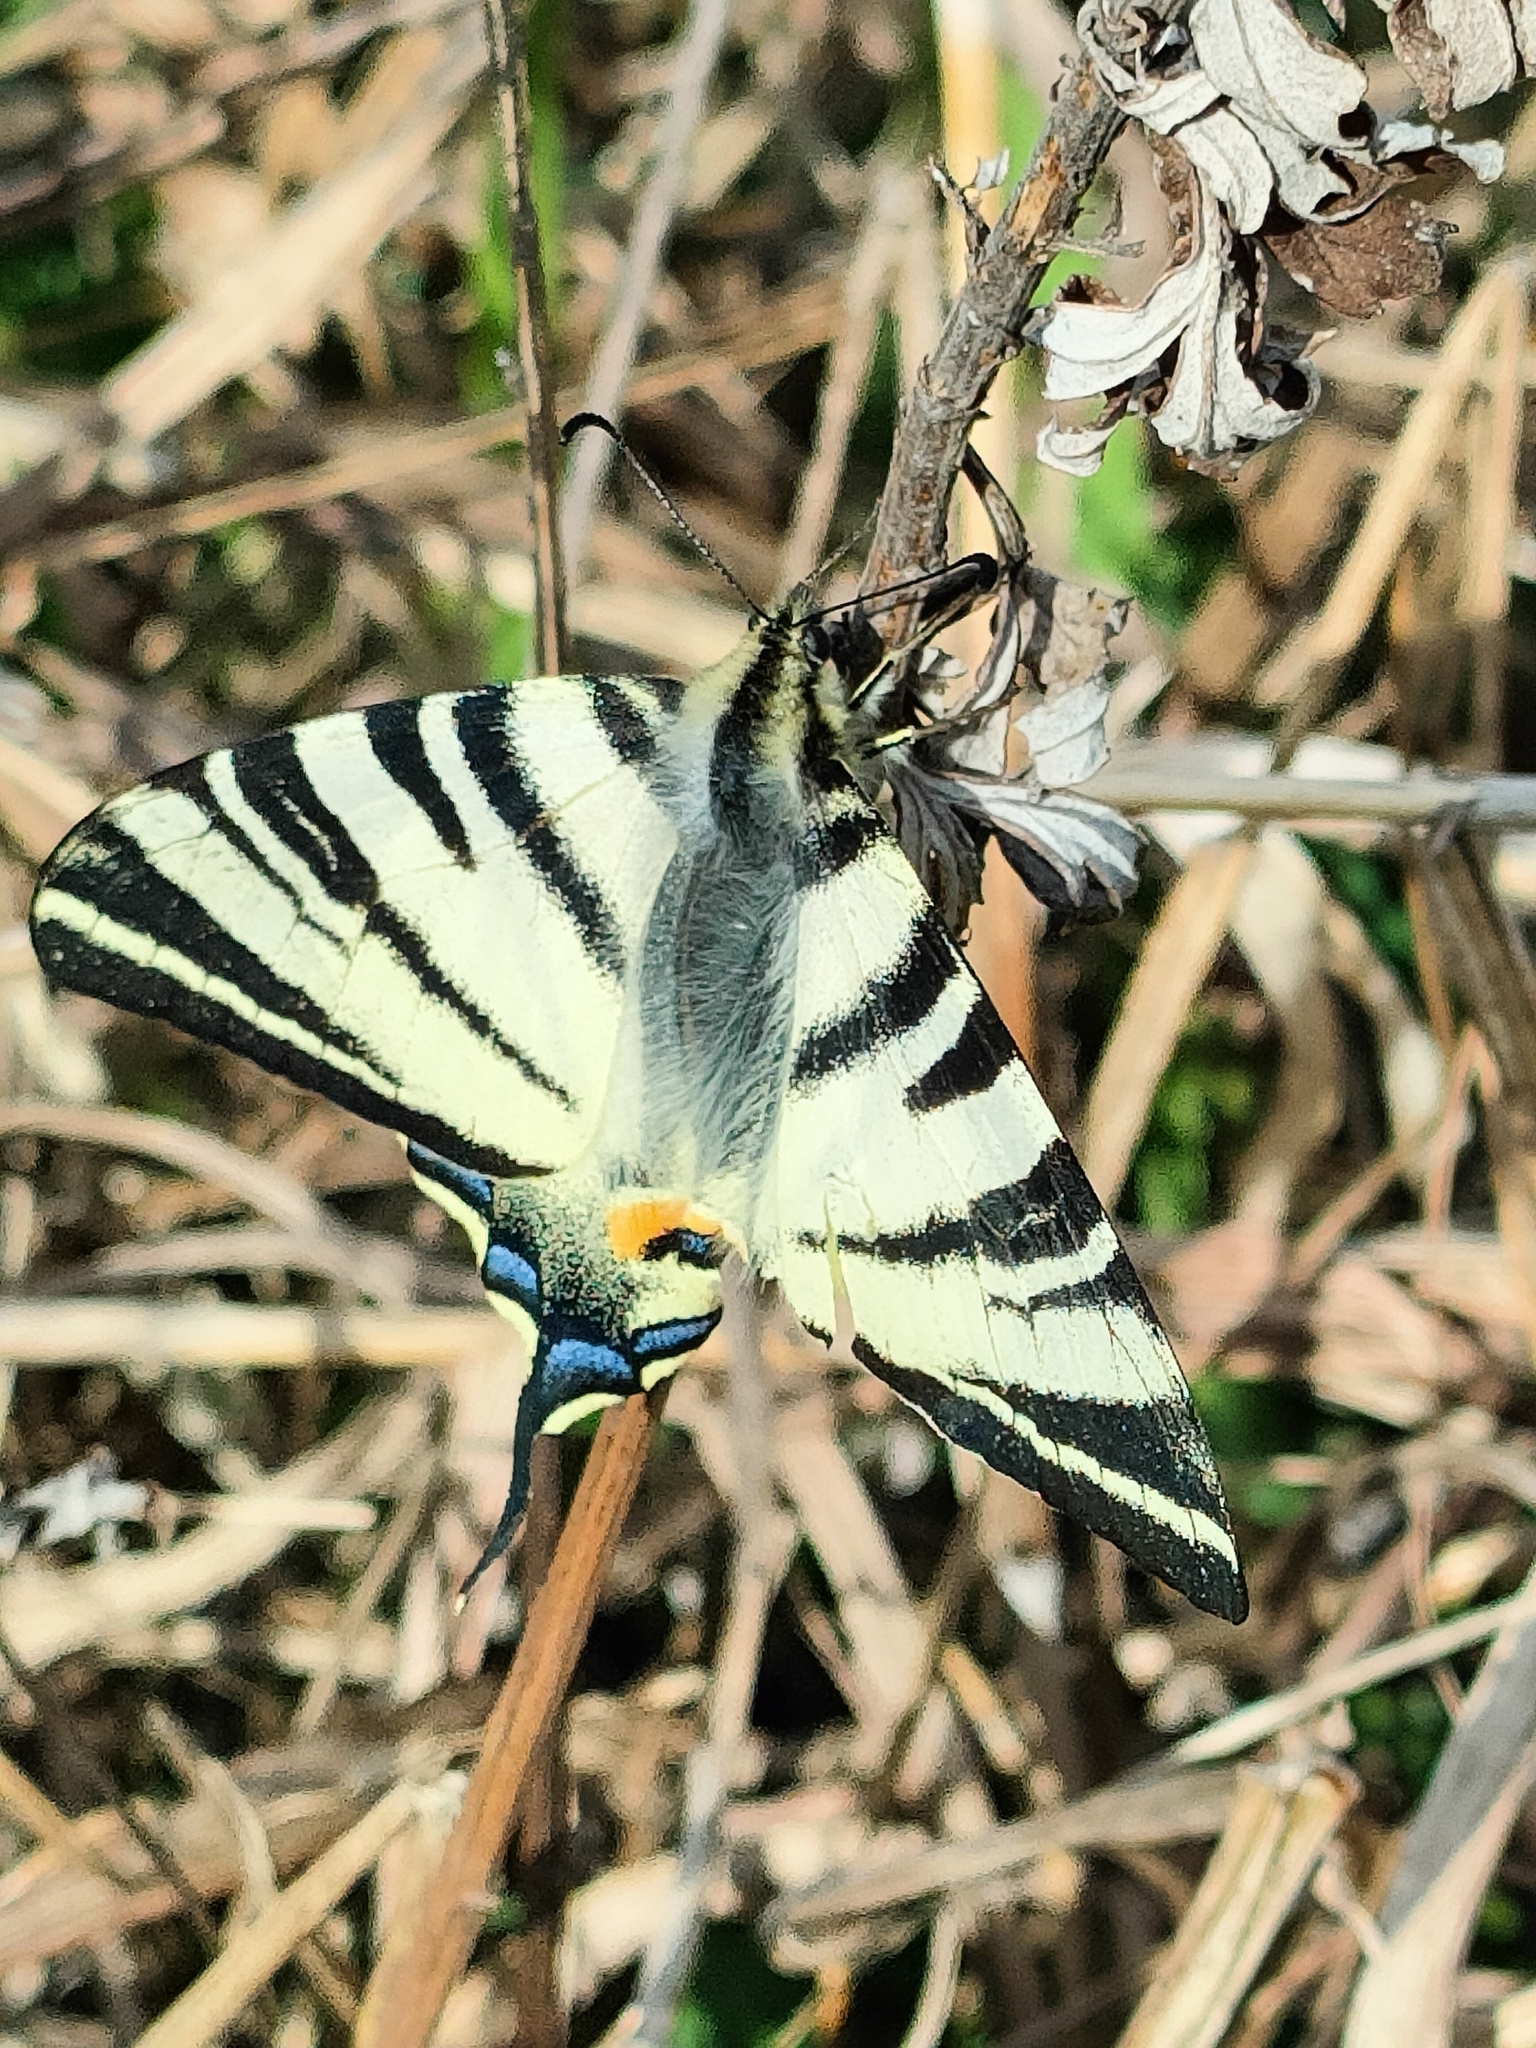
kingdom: Animalia
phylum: Arthropoda
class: Insecta
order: Lepidoptera
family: Papilionidae
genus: Iphiclides
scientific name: Iphiclides podalirius
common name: Scarce swallowtail
